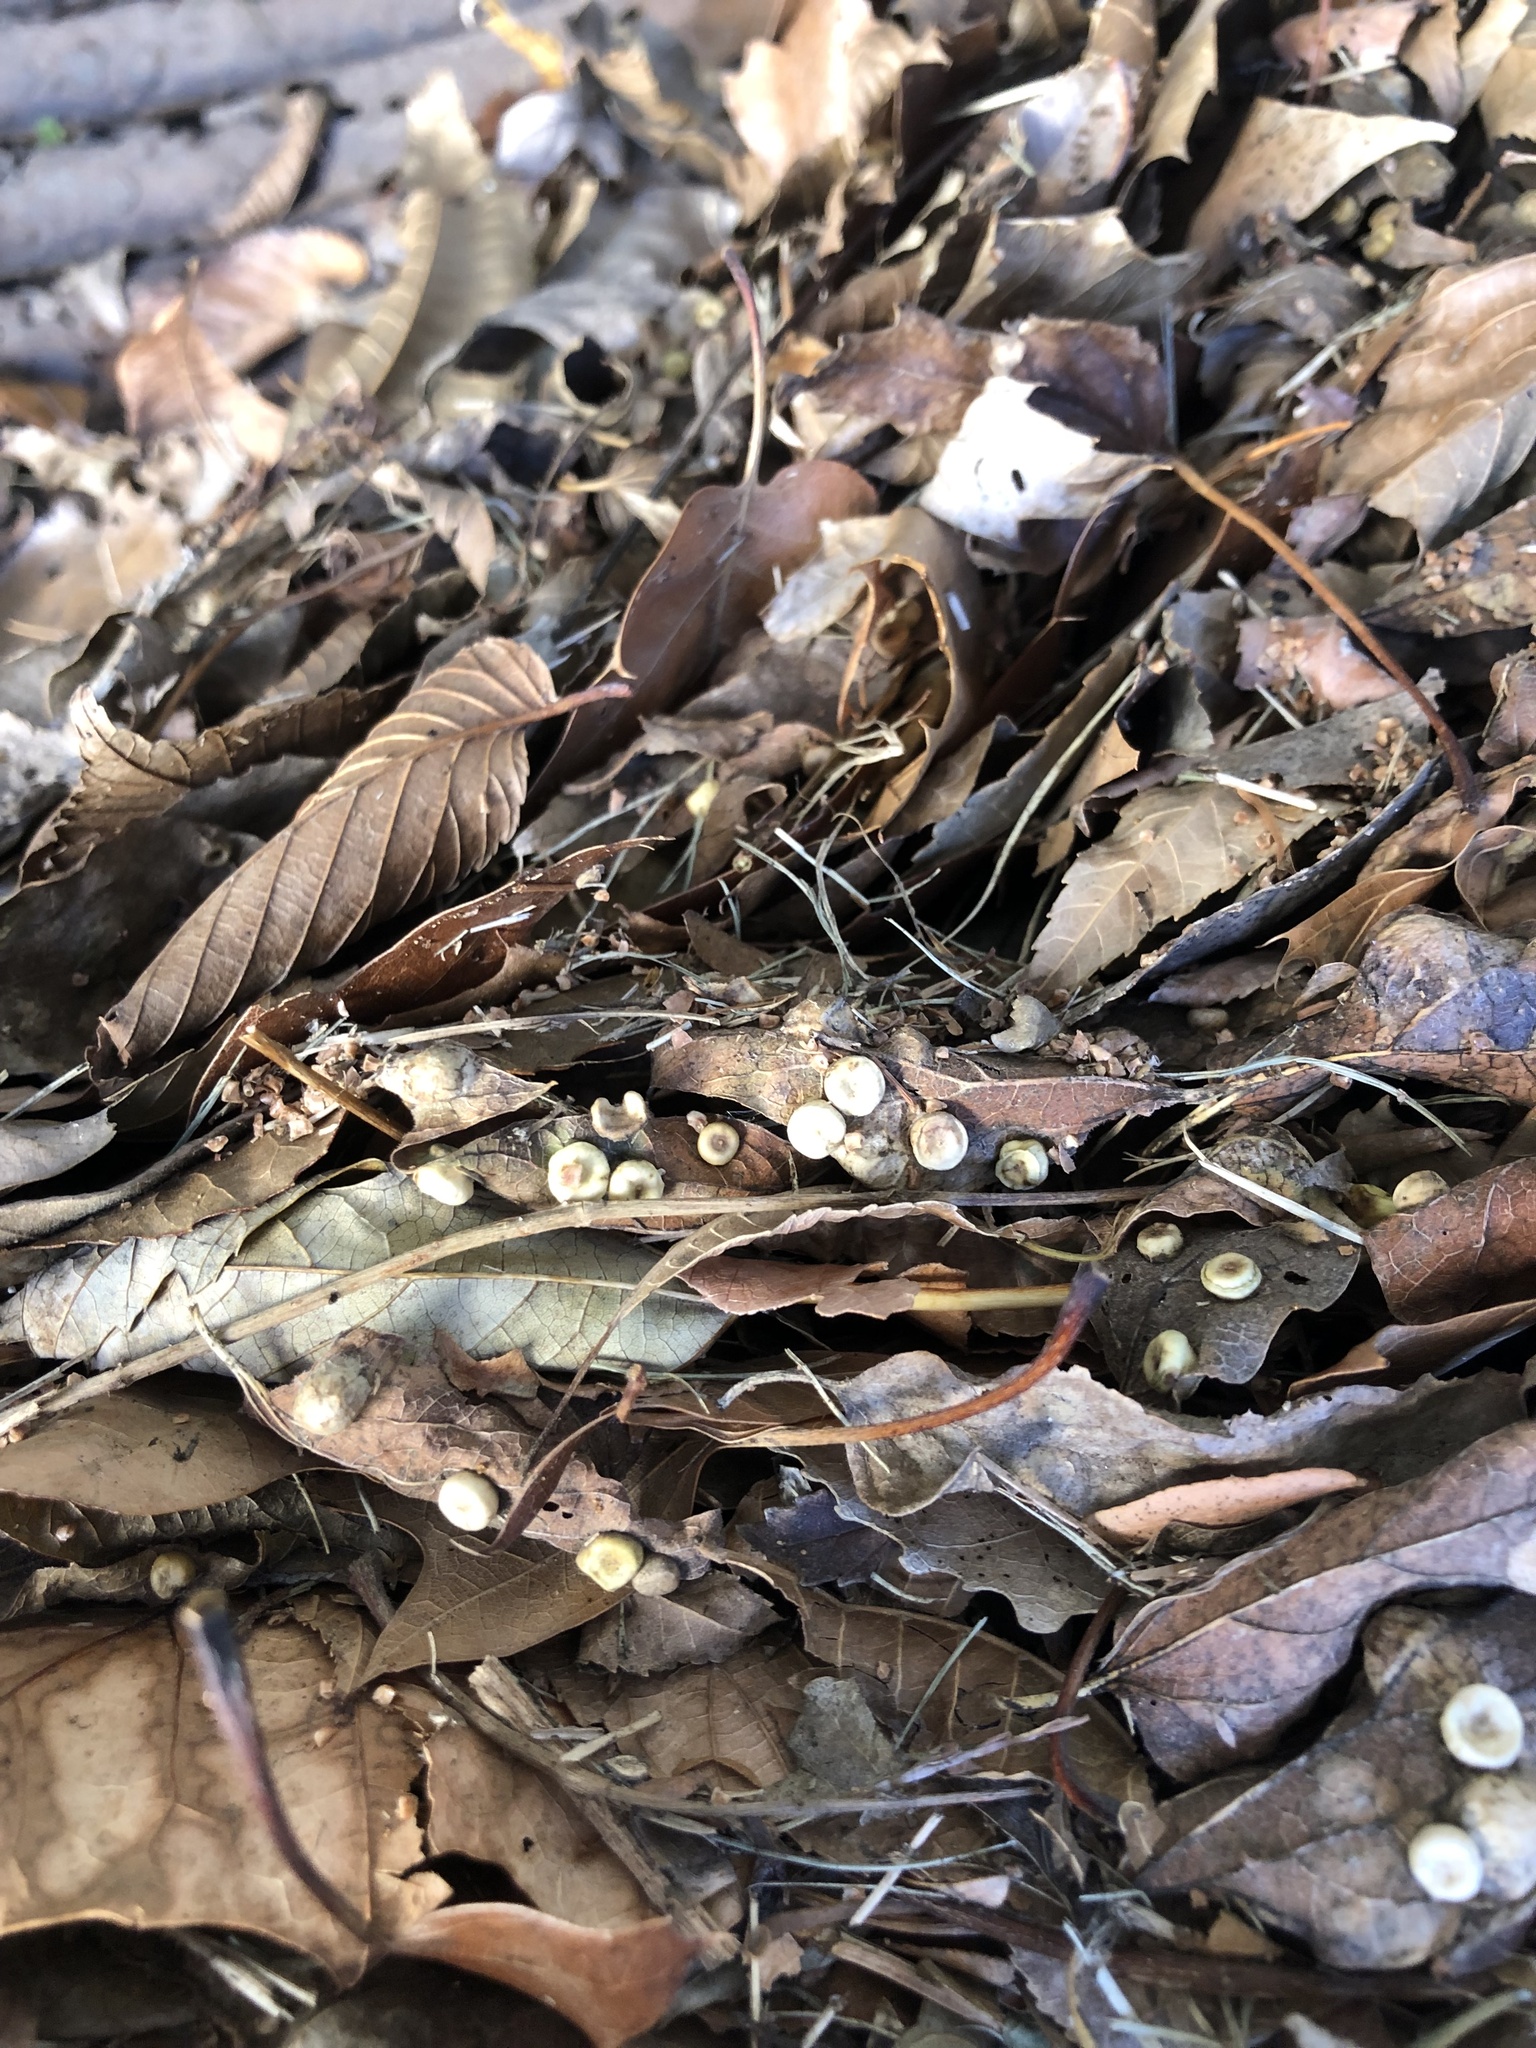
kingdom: Animalia
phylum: Arthropoda
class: Insecta
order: Hemiptera
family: Aphalaridae
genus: Pachypsylla
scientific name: Pachypsylla celtidismamma
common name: Hackberry nipplegall psyllid
